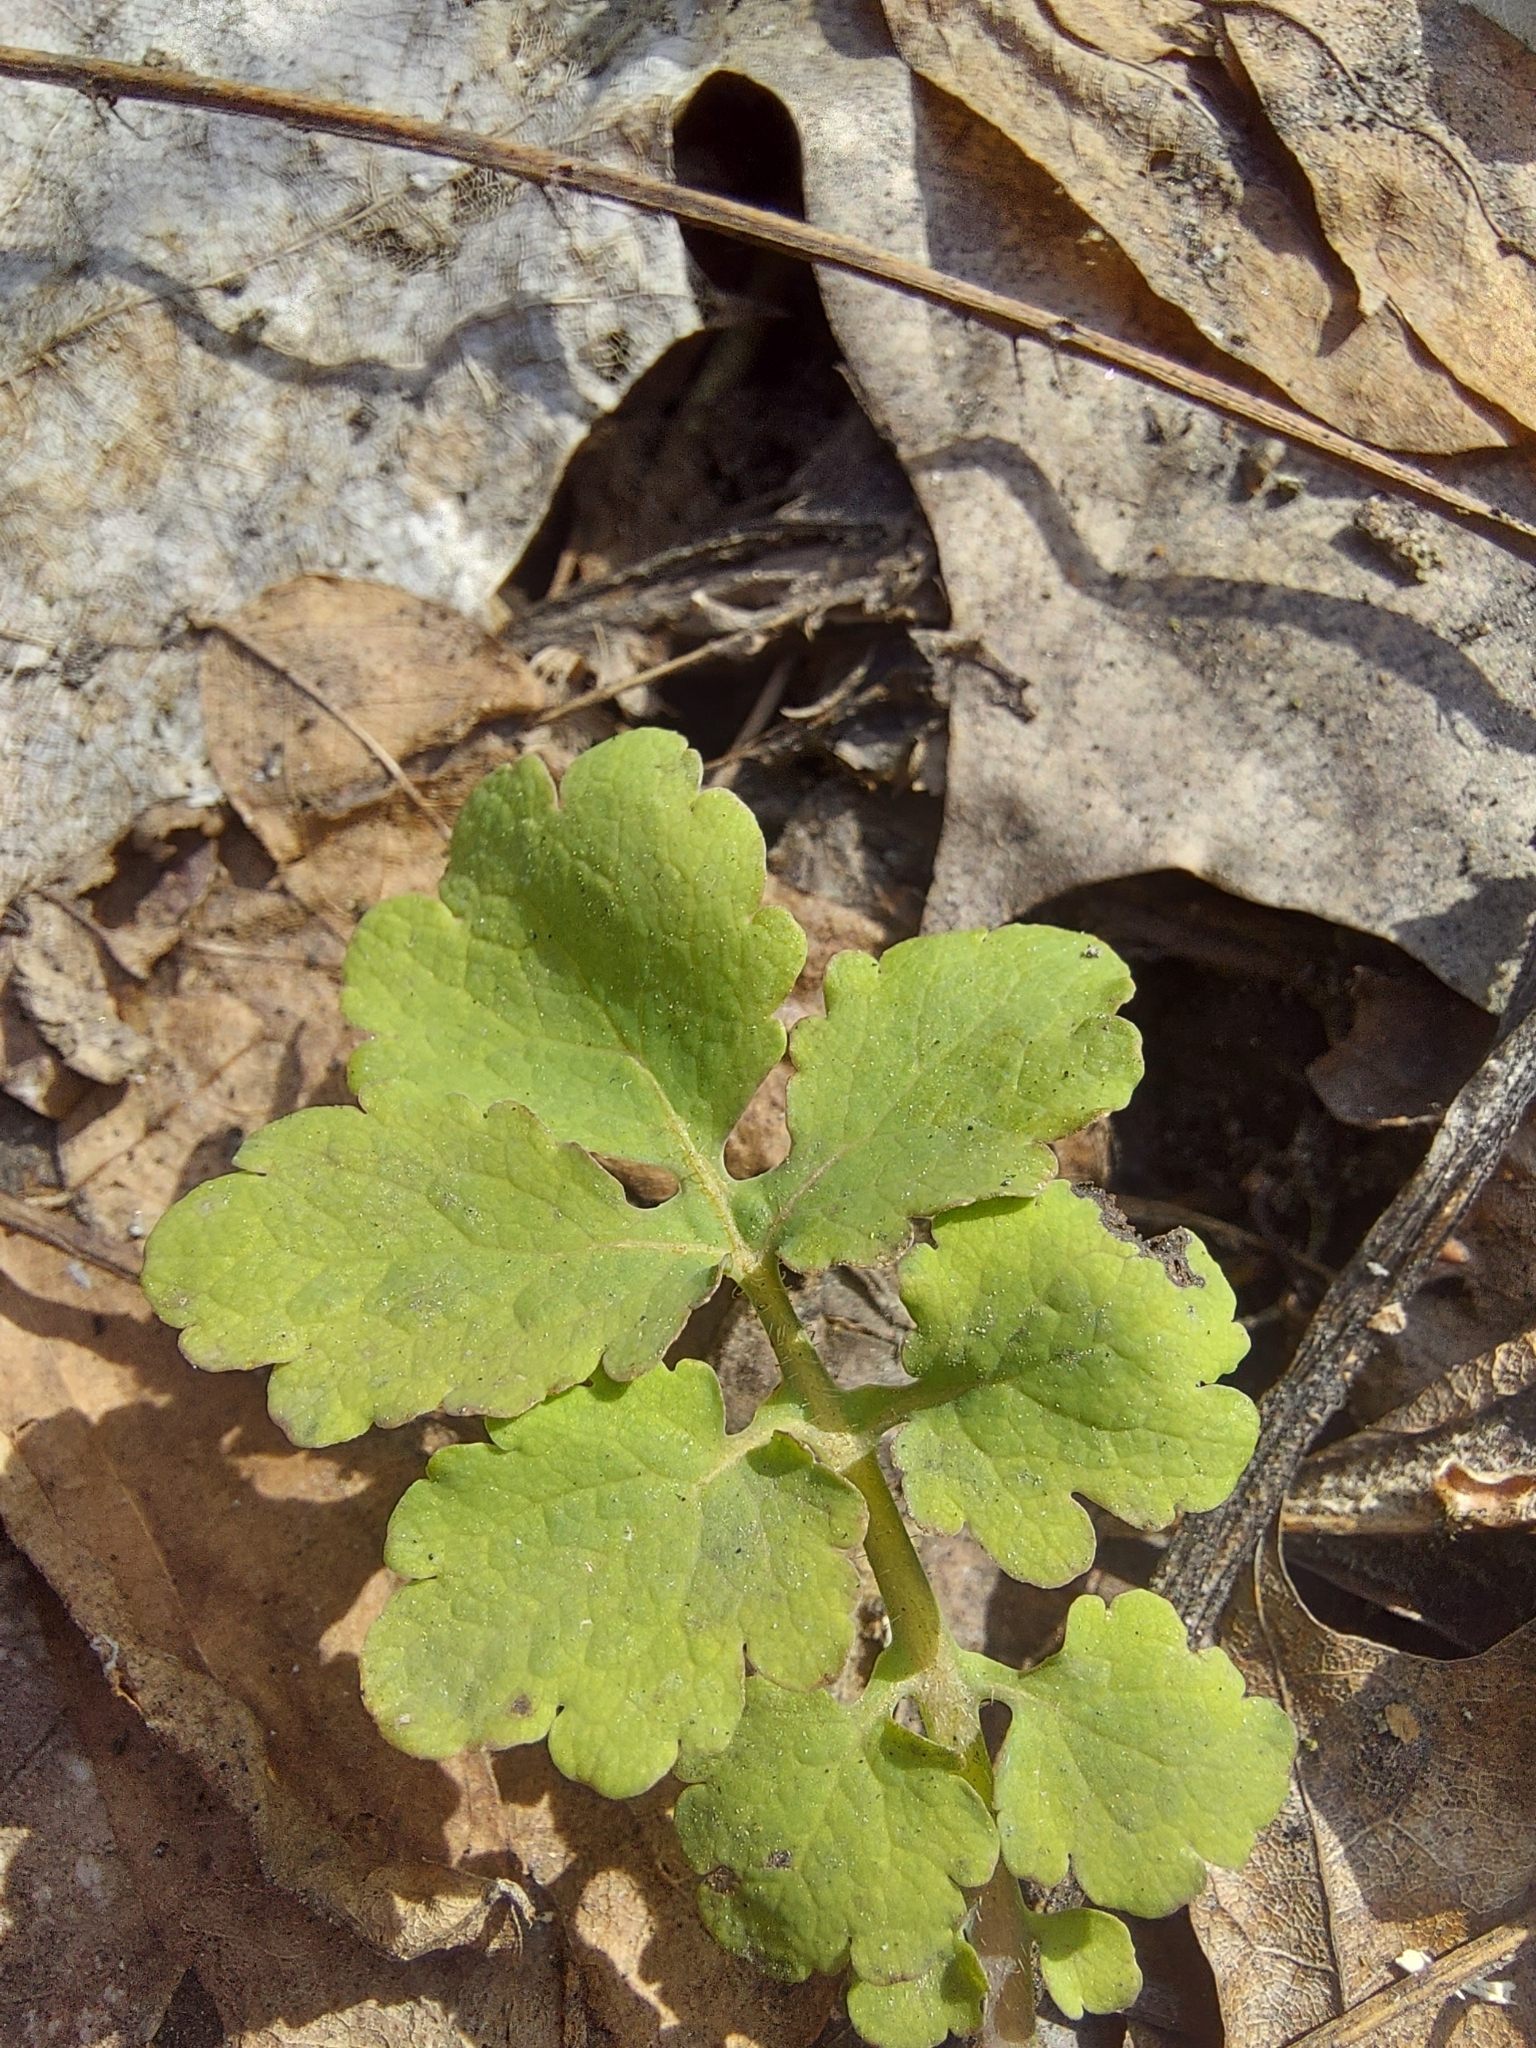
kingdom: Plantae
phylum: Tracheophyta
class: Magnoliopsida
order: Ranunculales
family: Papaveraceae
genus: Chelidonium
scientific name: Chelidonium majus
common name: Greater celandine
